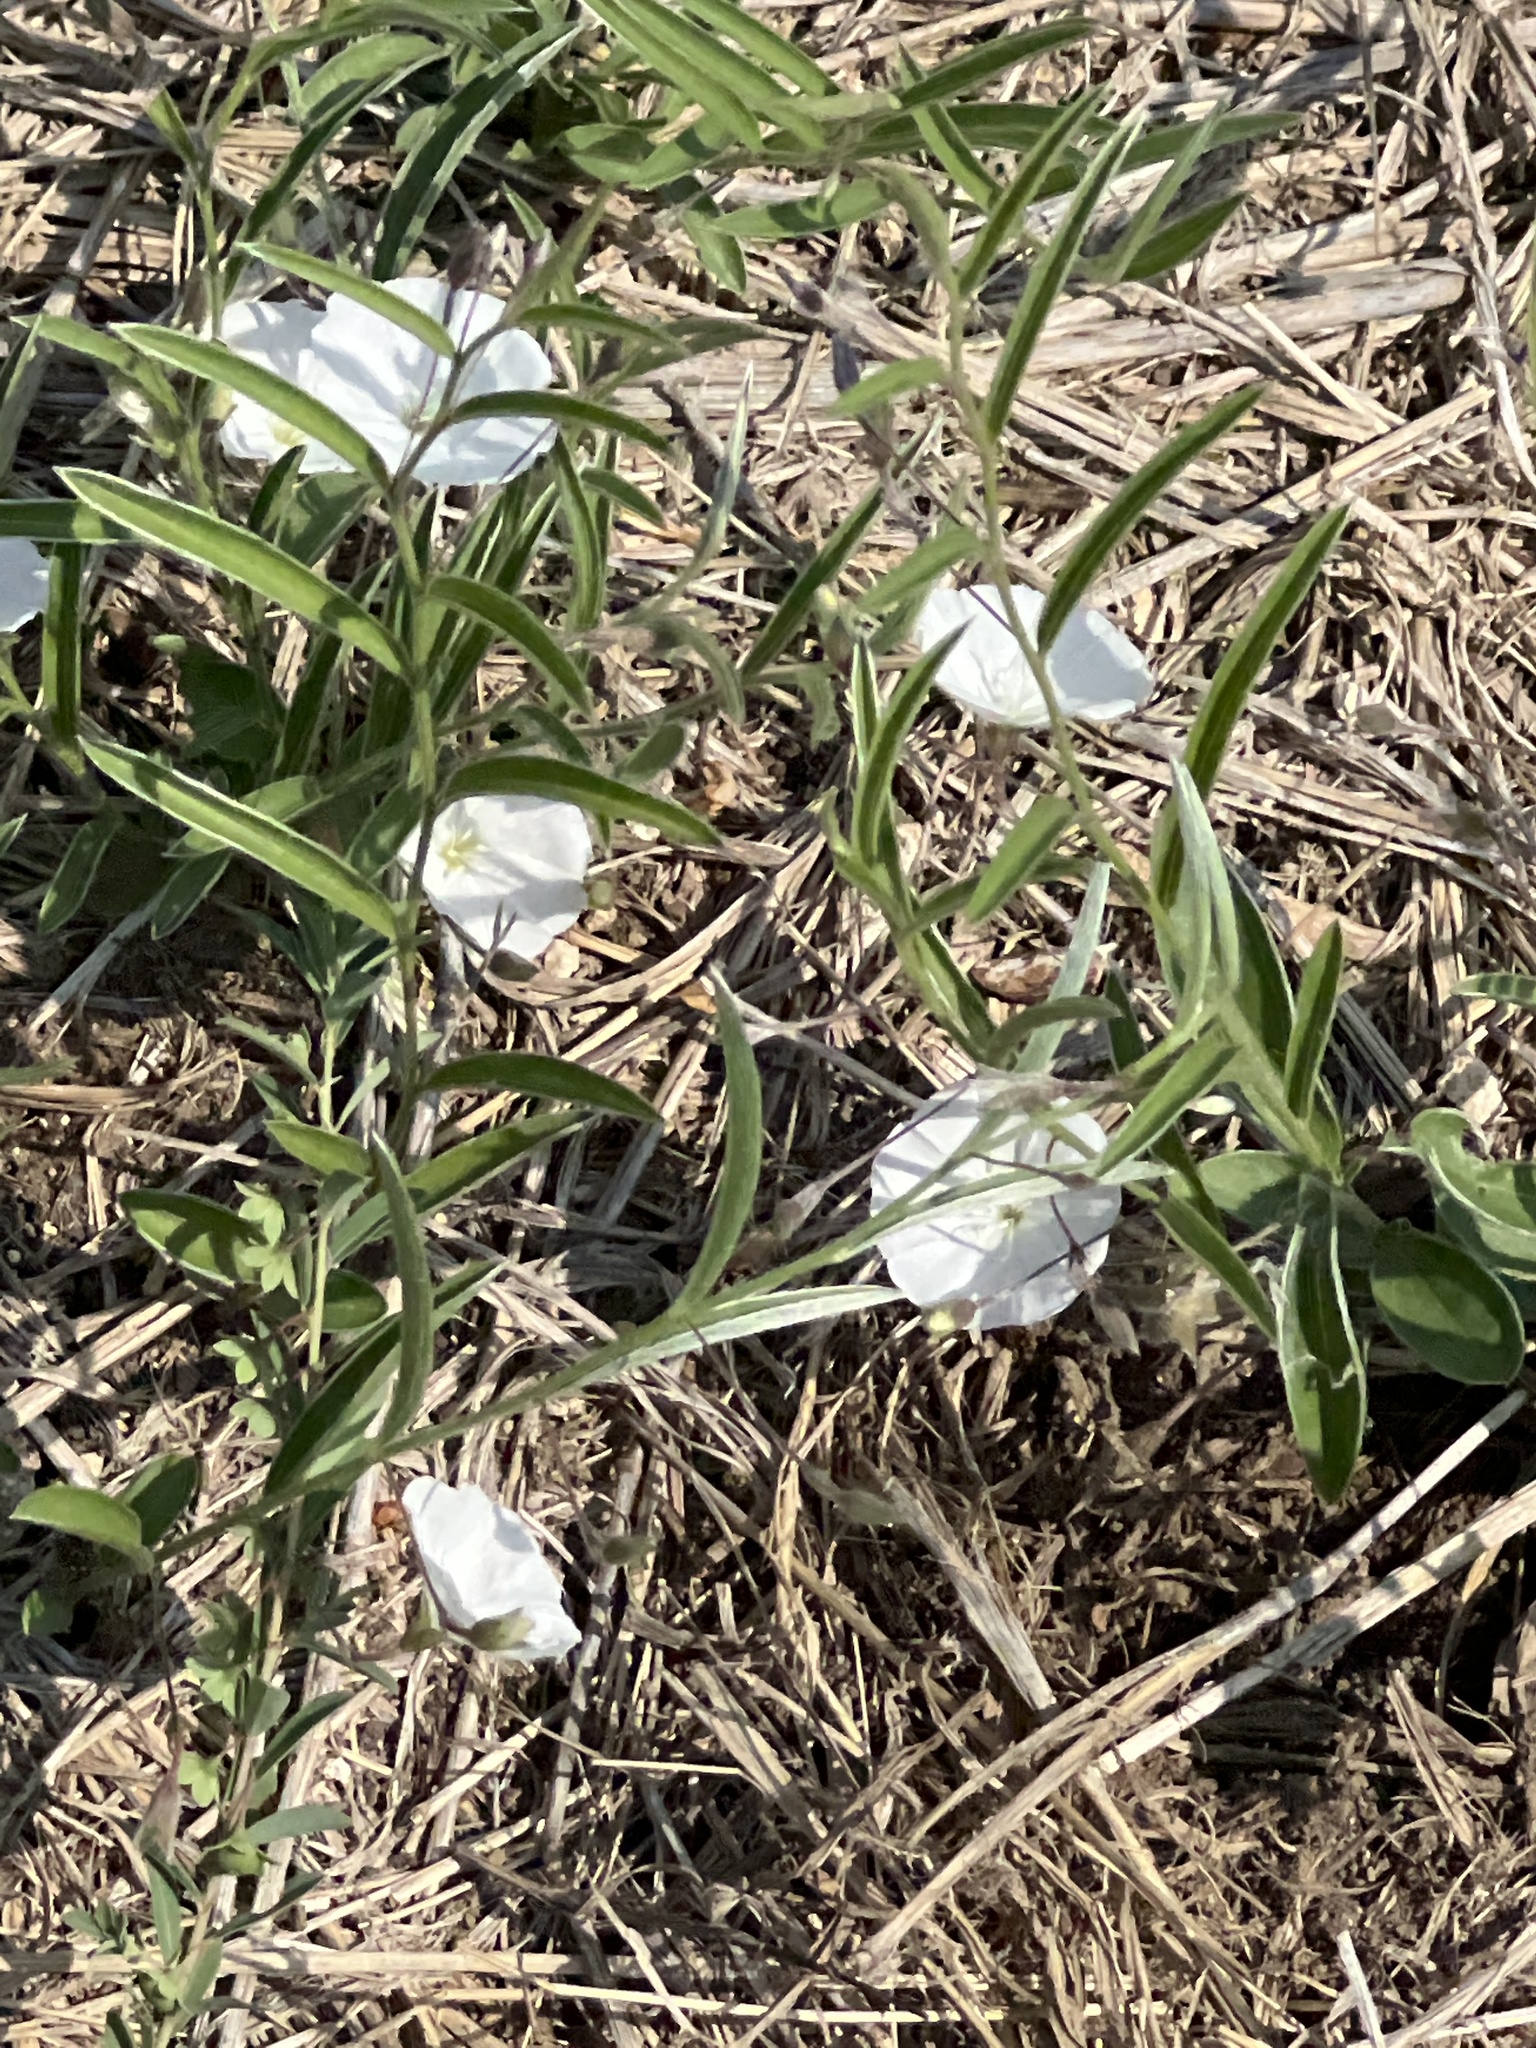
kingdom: Plantae
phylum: Tracheophyta
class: Magnoliopsida
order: Solanales
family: Convolvulaceae
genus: Evolvulus
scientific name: Evolvulus sericeus
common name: Blue dots
